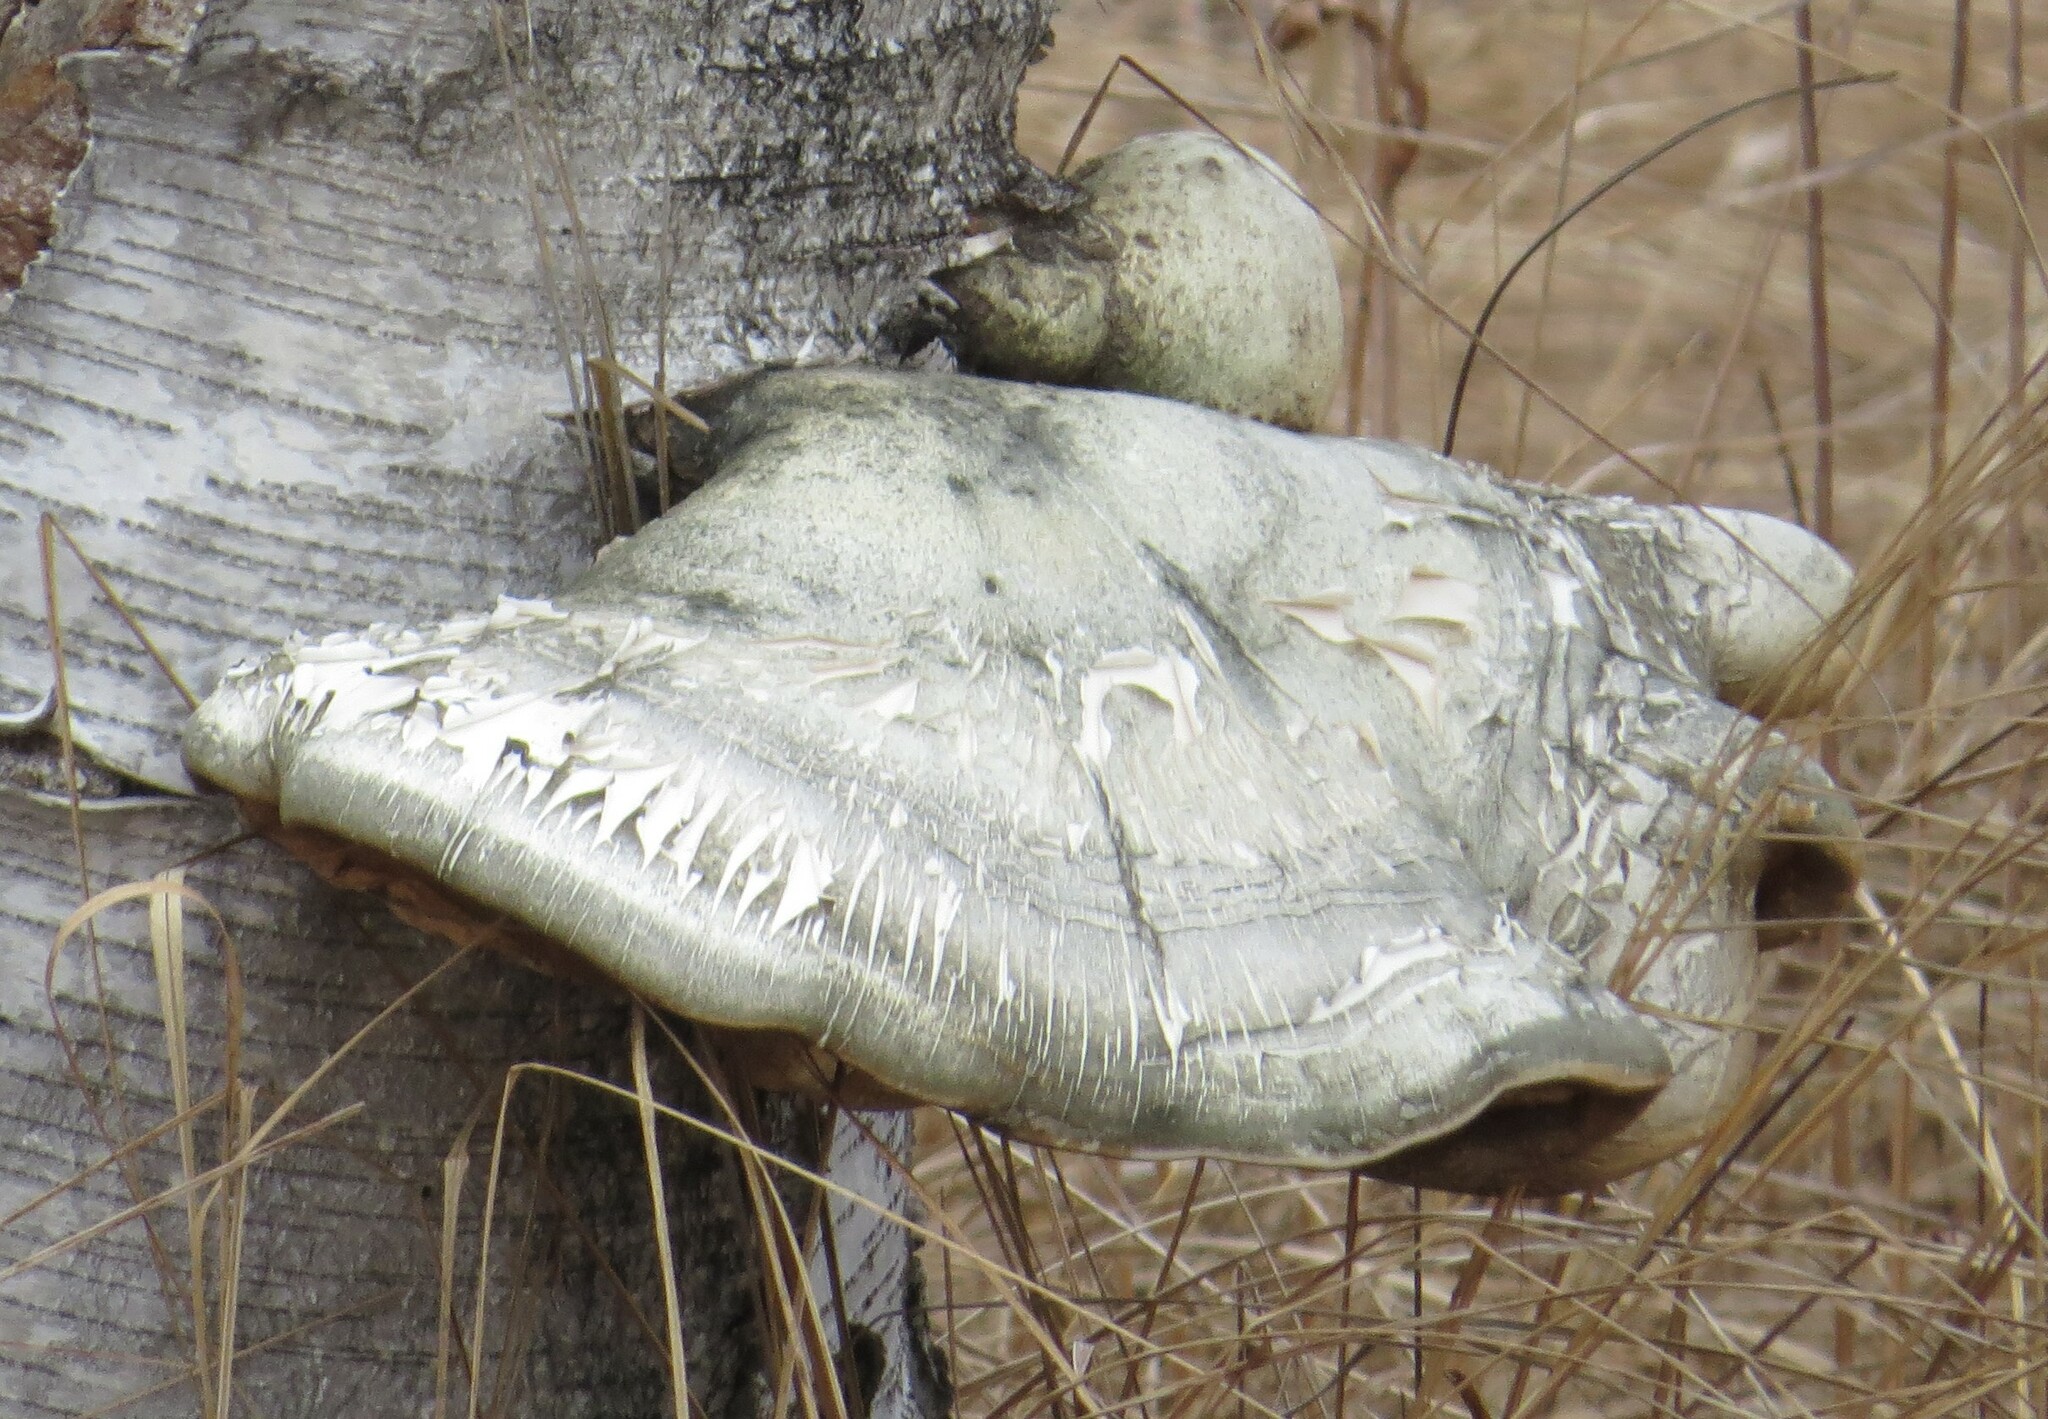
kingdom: Fungi
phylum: Basidiomycota
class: Agaricomycetes
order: Polyporales
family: Fomitopsidaceae
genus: Fomitopsis
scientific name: Fomitopsis betulina
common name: Birch polypore
